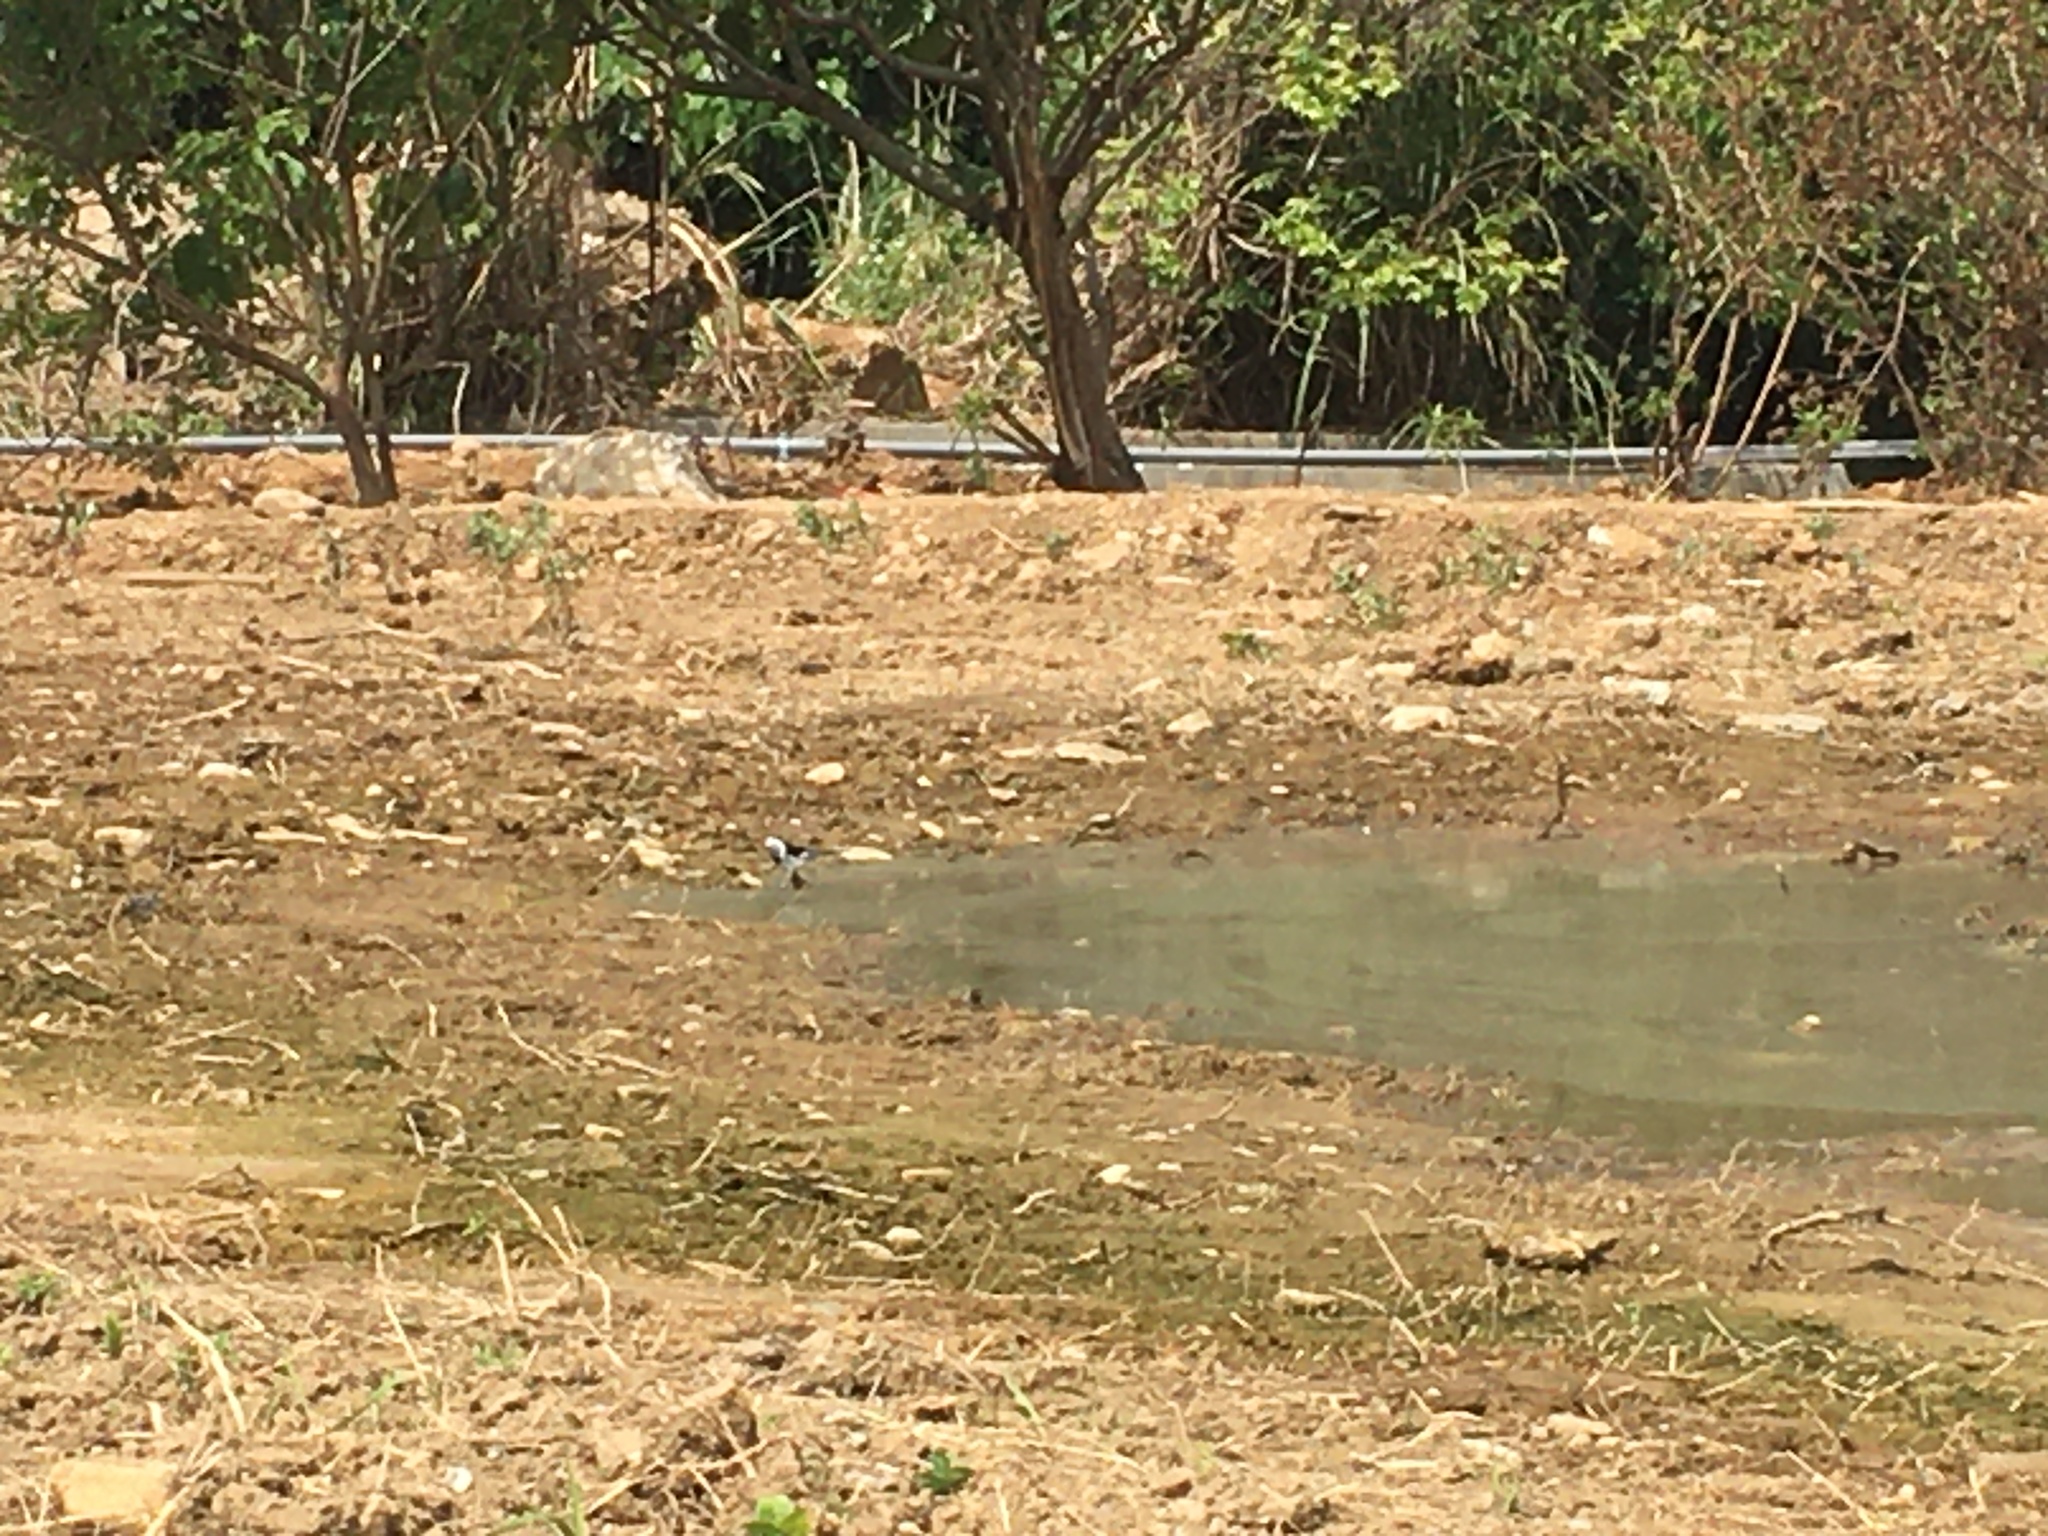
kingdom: Animalia
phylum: Chordata
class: Aves
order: Passeriformes
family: Motacillidae
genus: Motacilla
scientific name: Motacilla alba
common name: White wagtail
